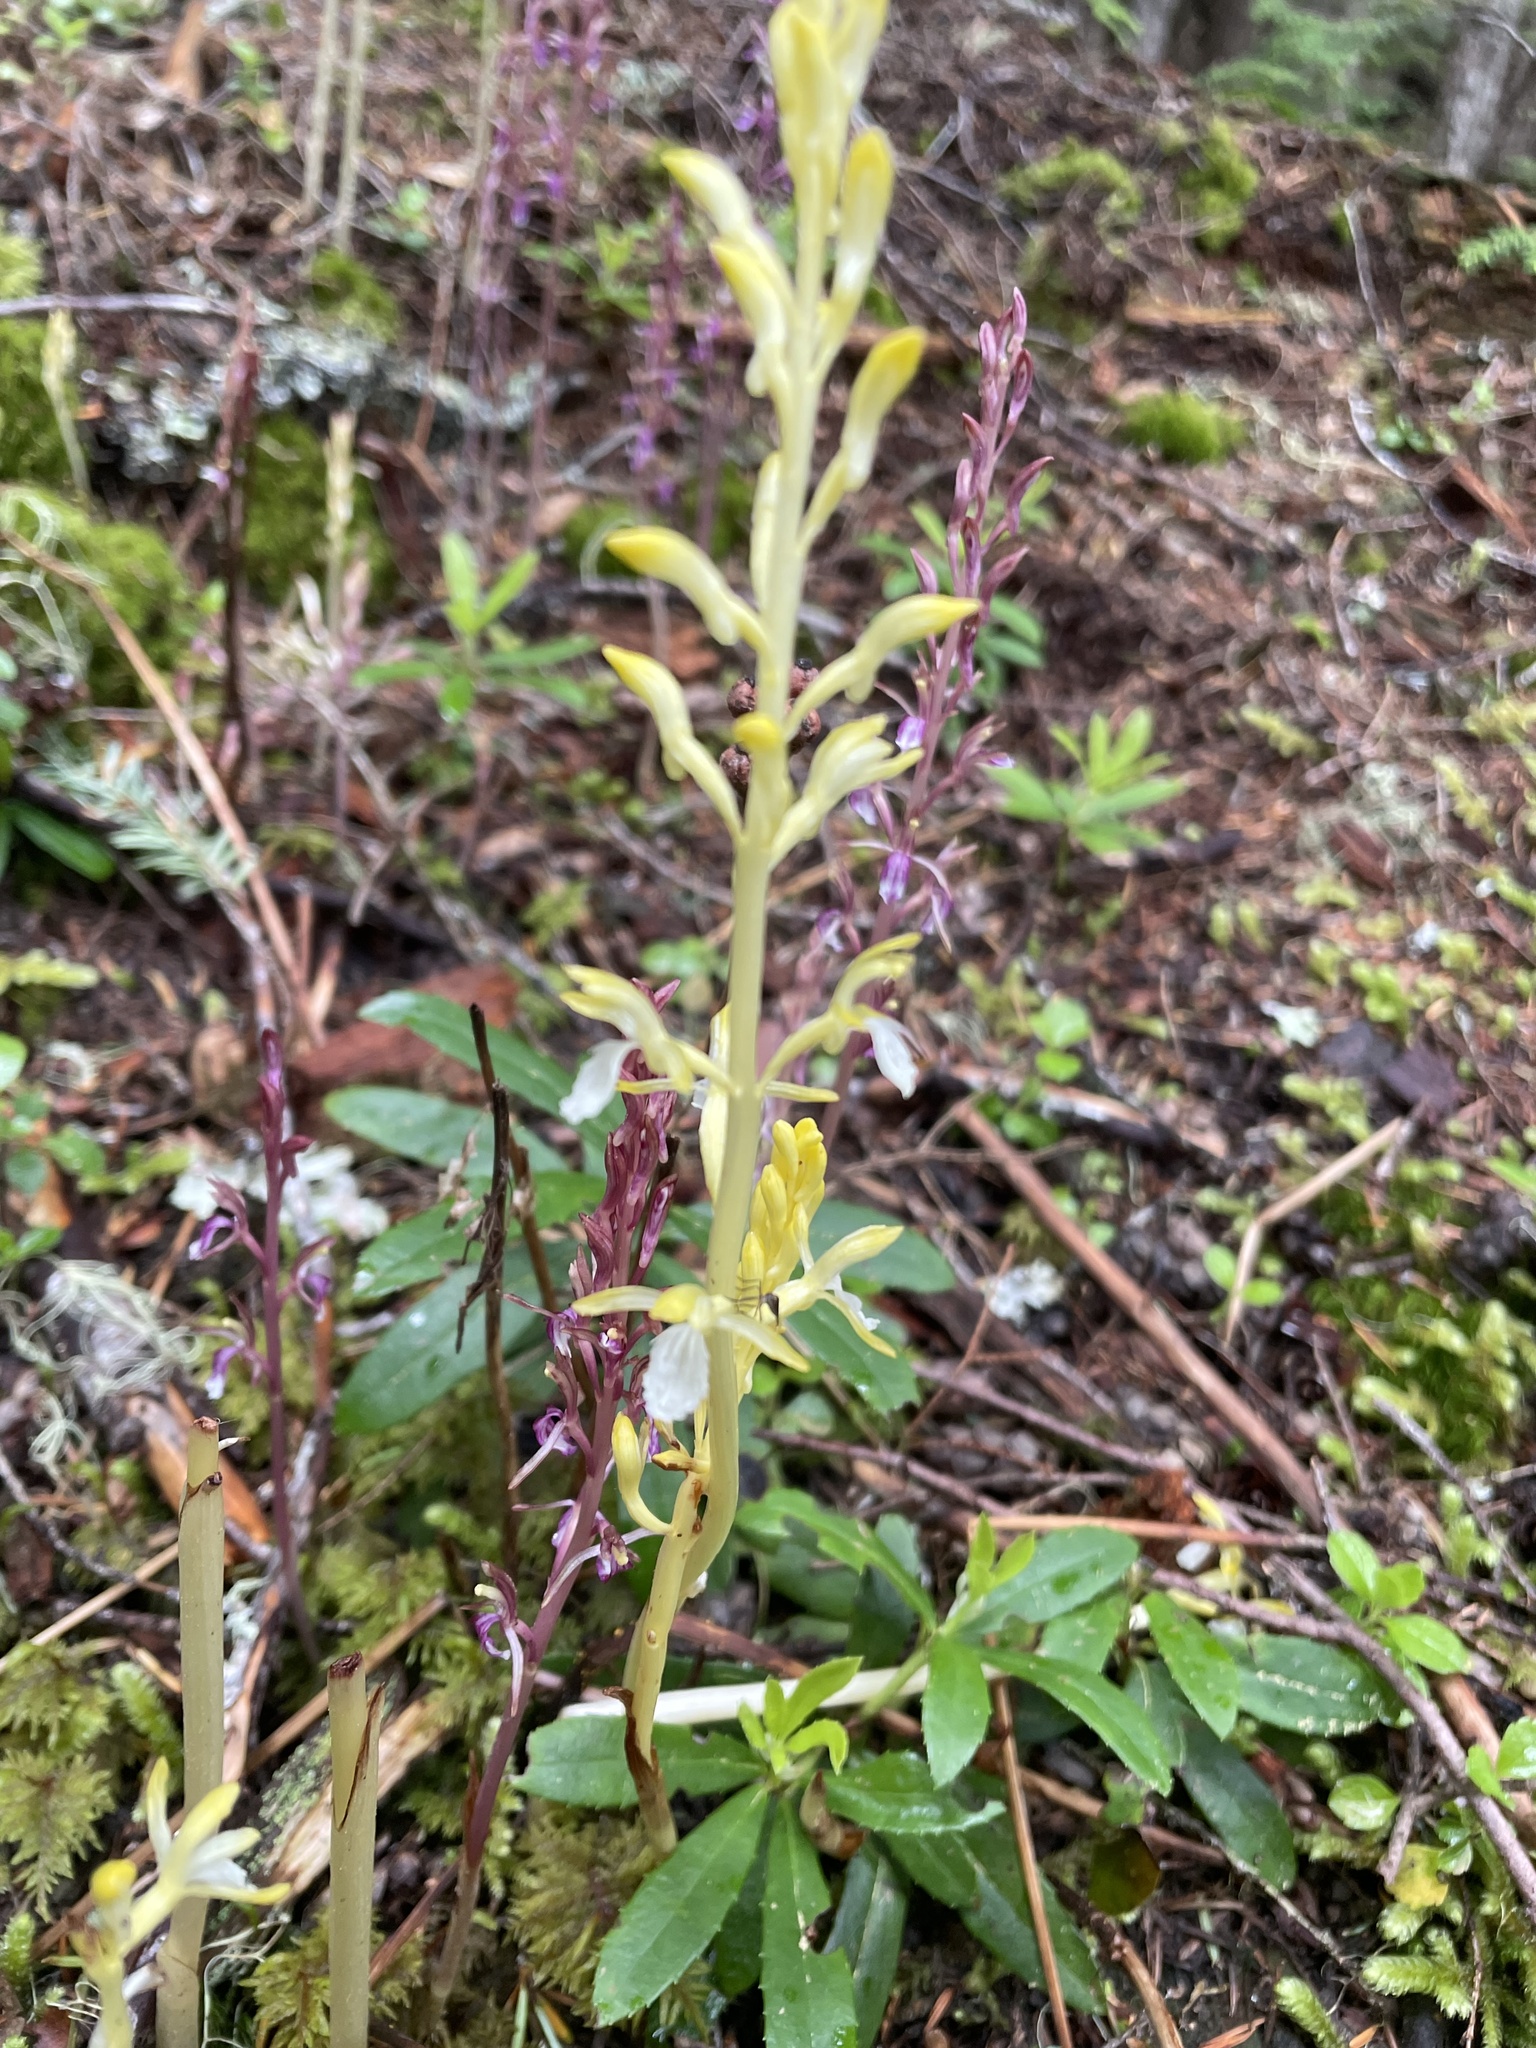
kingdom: Plantae
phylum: Tracheophyta
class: Liliopsida
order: Asparagales
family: Orchidaceae
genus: Corallorhiza
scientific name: Corallorhiza mertensiana
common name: Pacific coralroot
